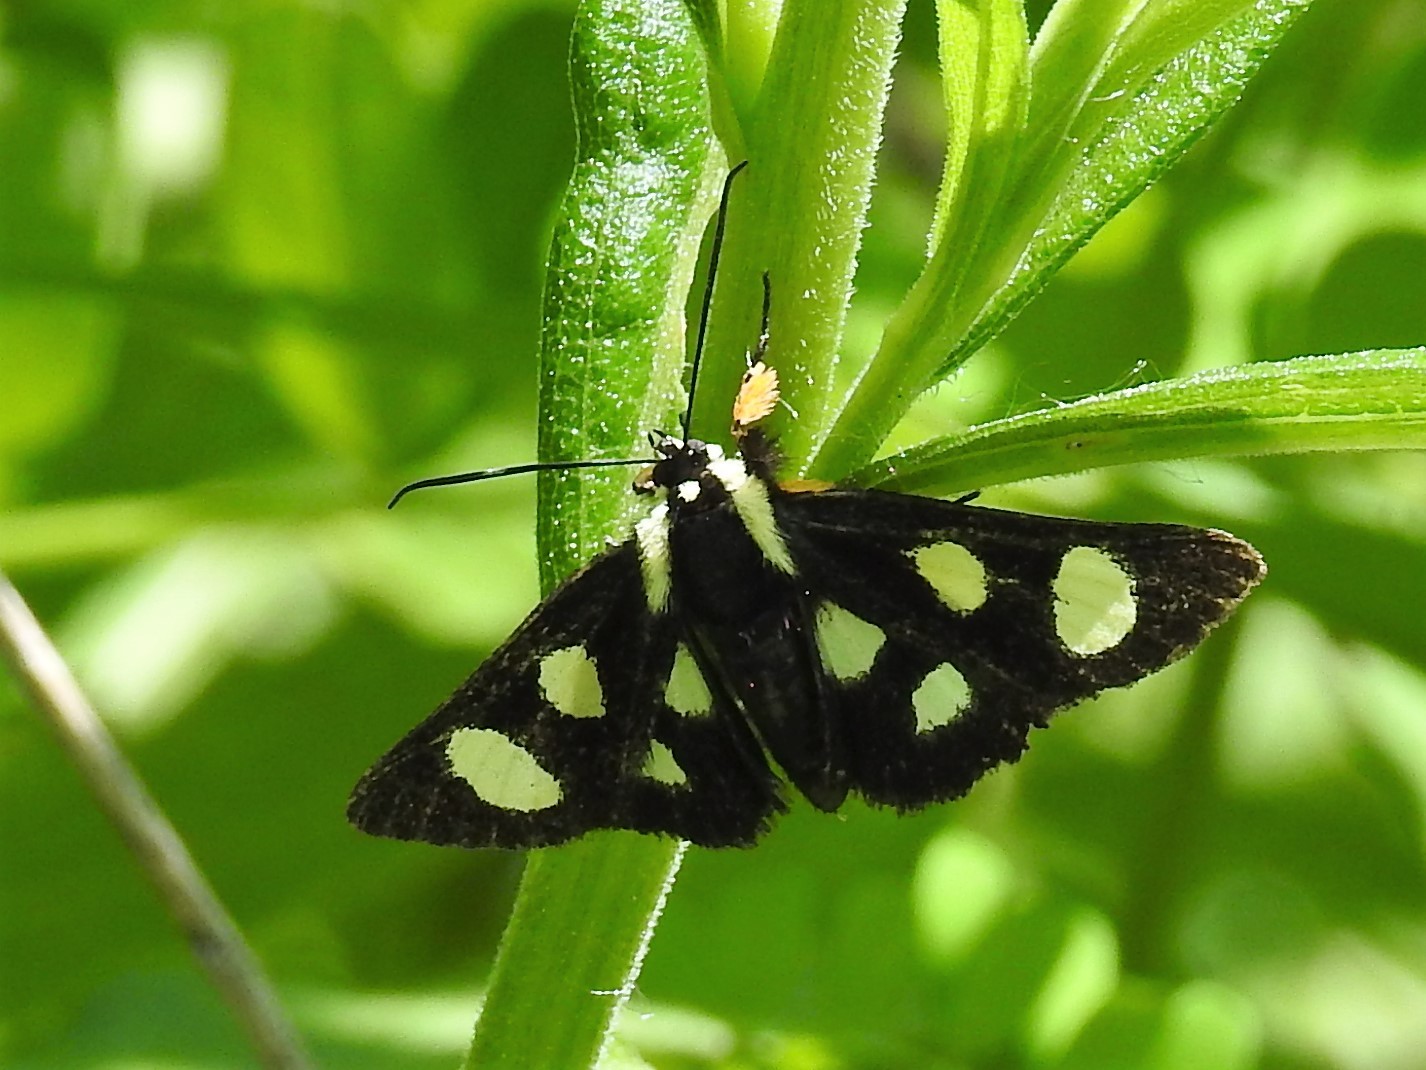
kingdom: Animalia
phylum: Arthropoda
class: Insecta
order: Lepidoptera
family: Noctuidae
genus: Alypia
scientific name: Alypia octomaculata
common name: Eight-spotted forester
